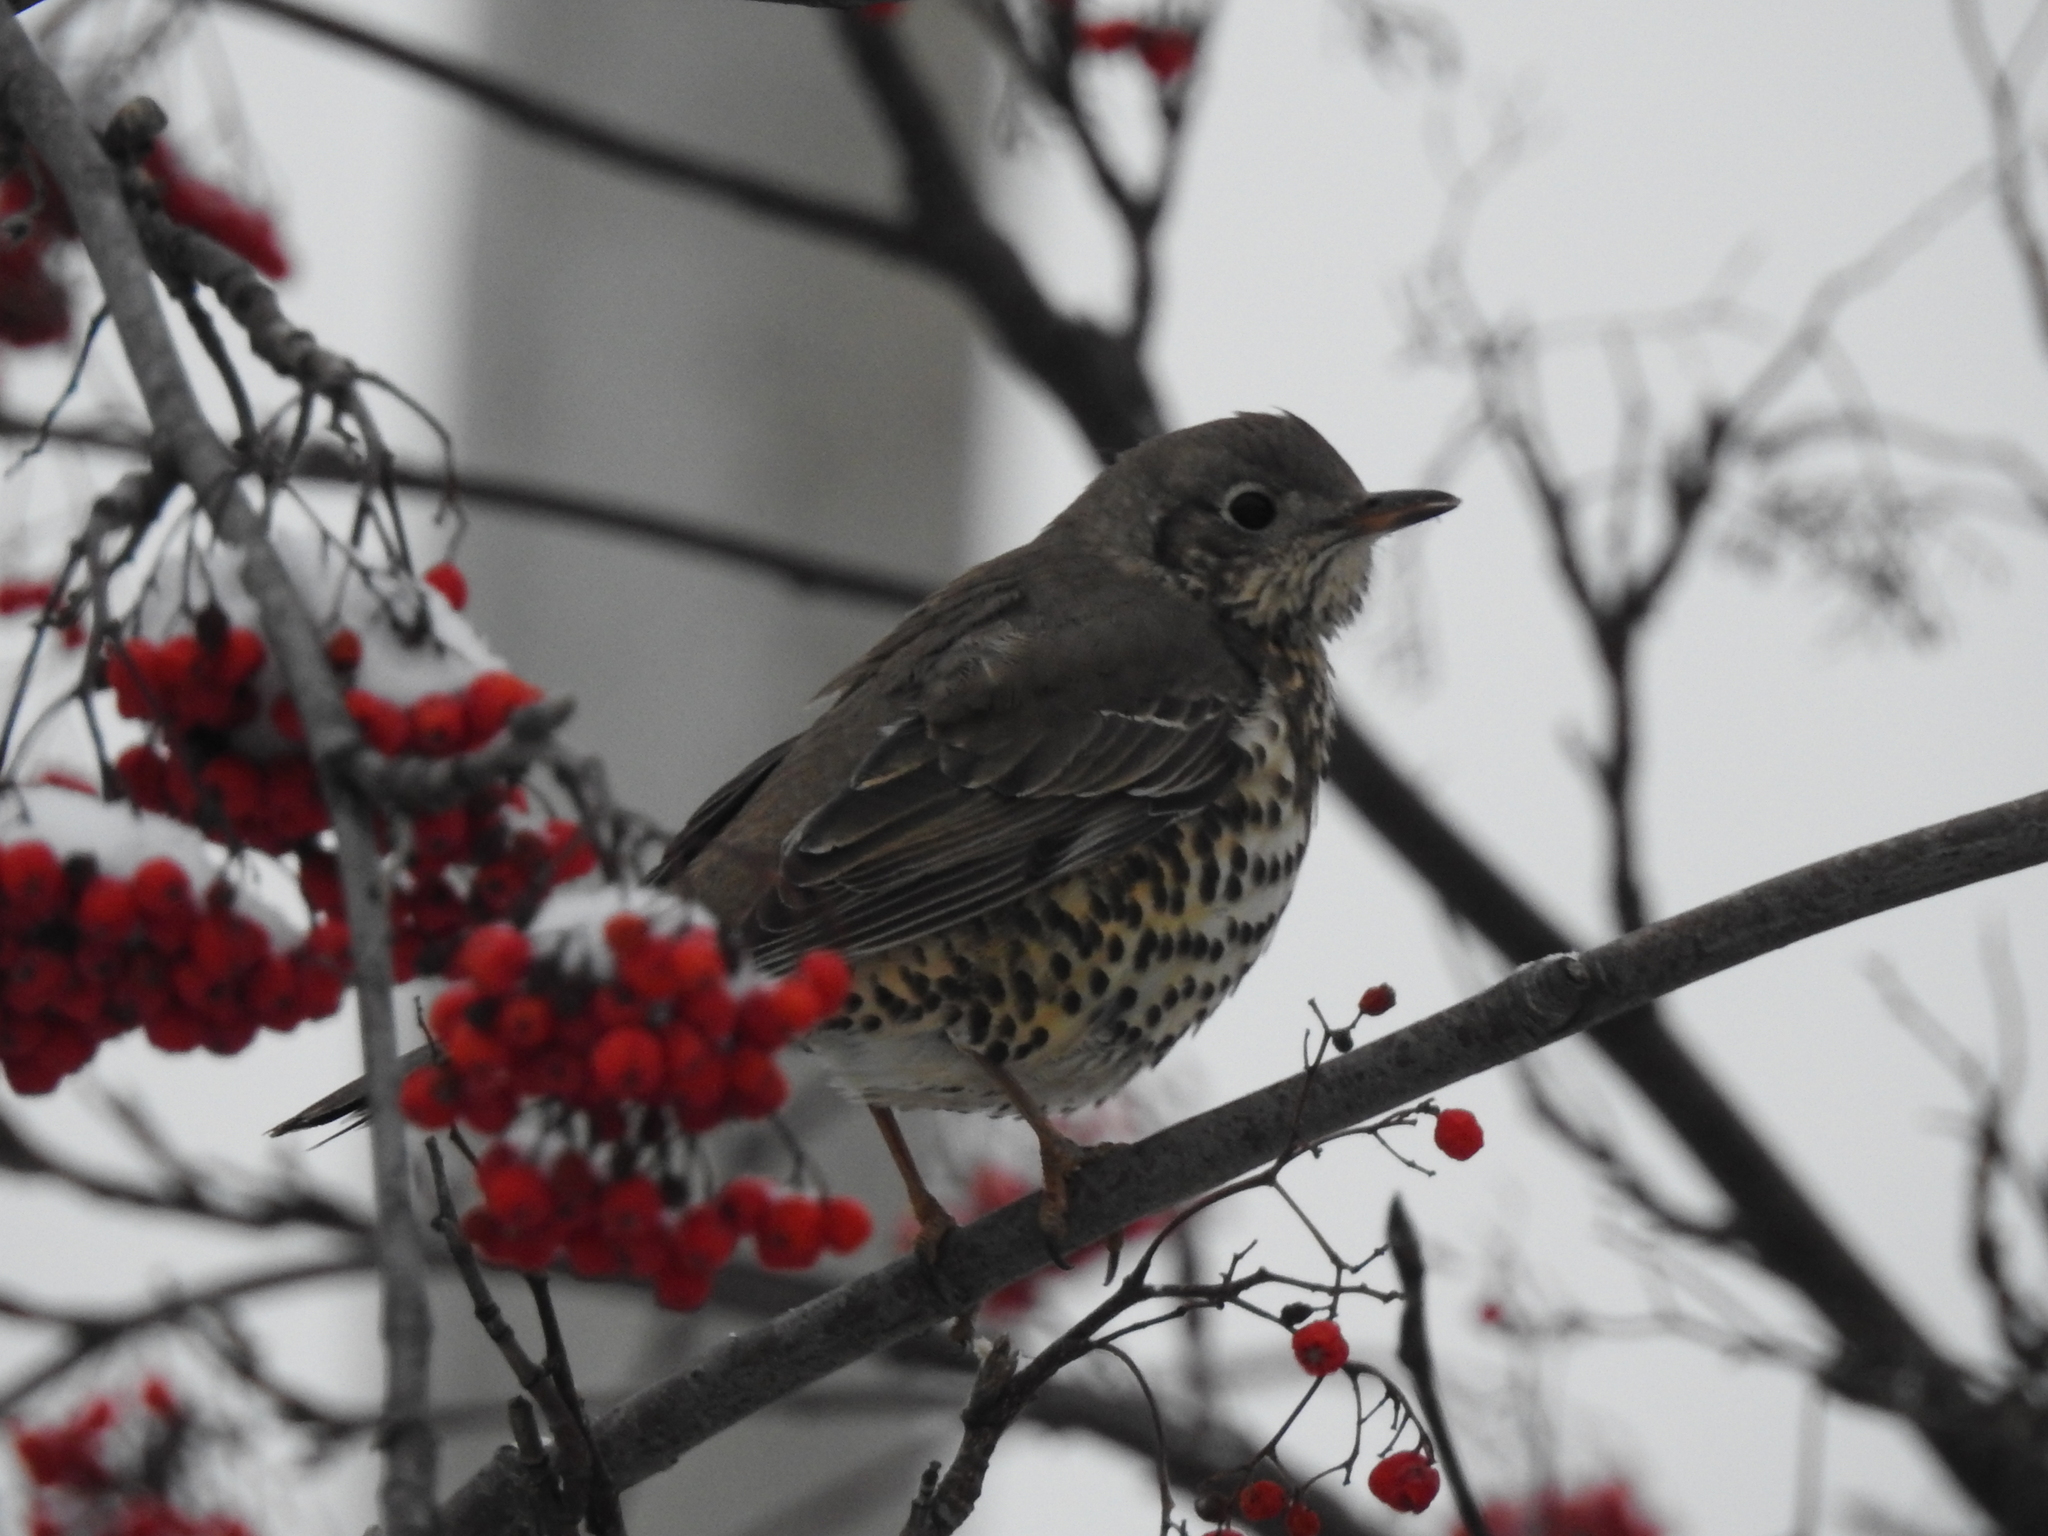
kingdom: Animalia
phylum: Chordata
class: Aves
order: Passeriformes
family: Turdidae
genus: Turdus
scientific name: Turdus viscivorus
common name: Mistle thrush
